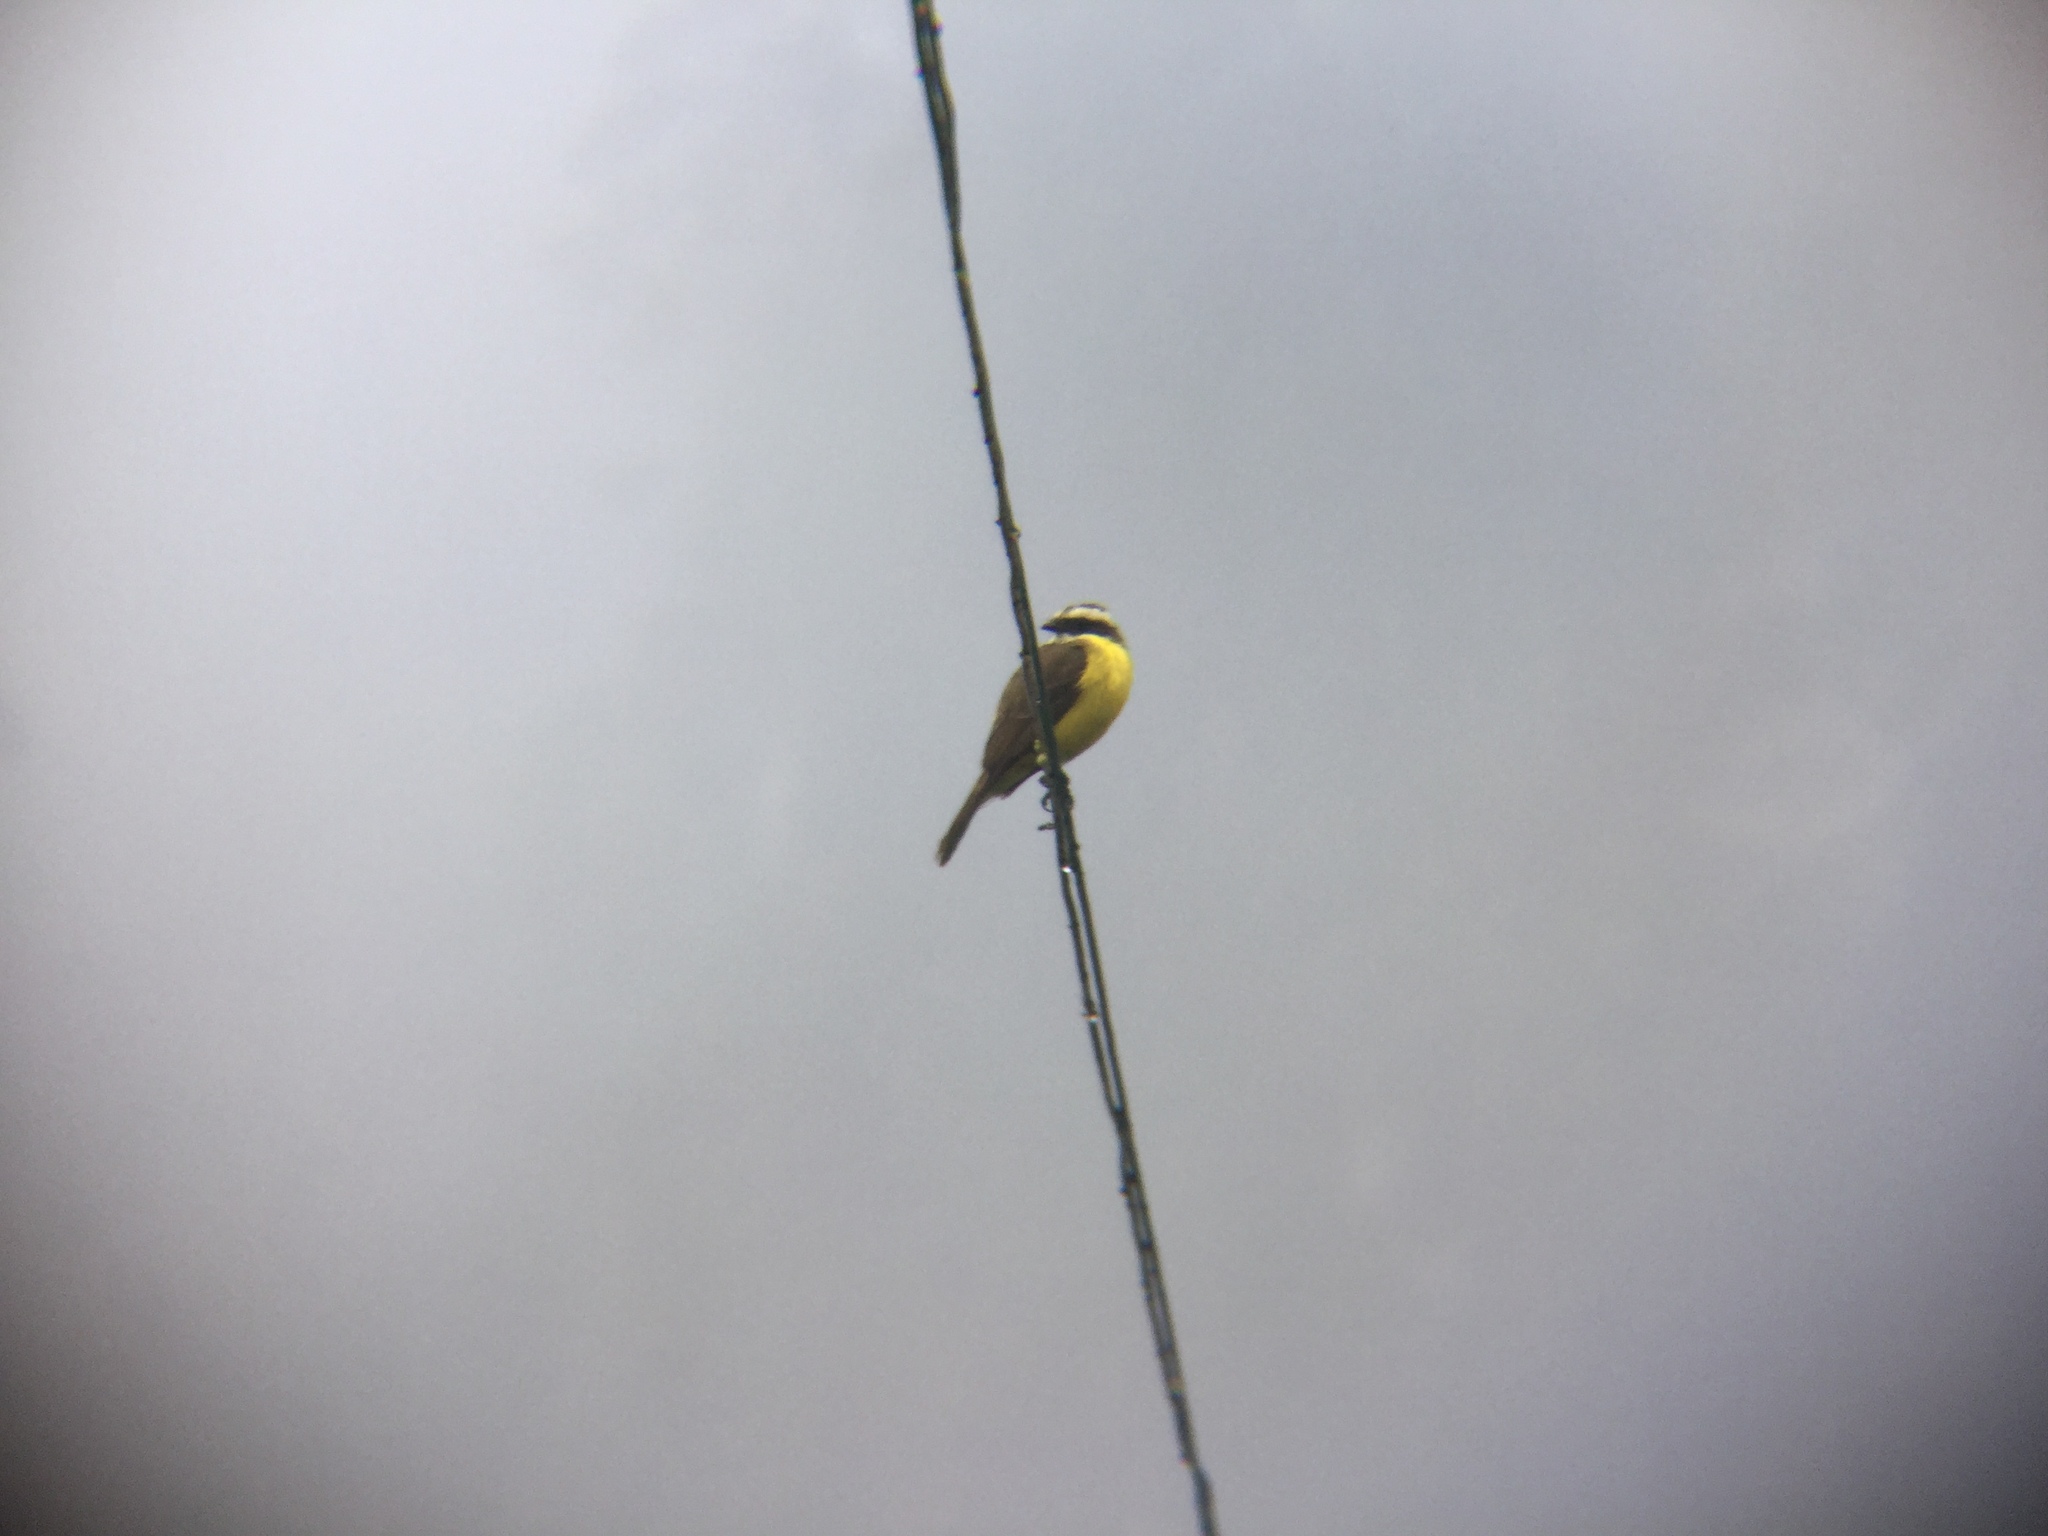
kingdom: Animalia
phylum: Chordata
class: Aves
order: Passeriformes
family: Tyrannidae
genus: Myiozetetes
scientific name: Myiozetetes similis
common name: Social flycatcher
